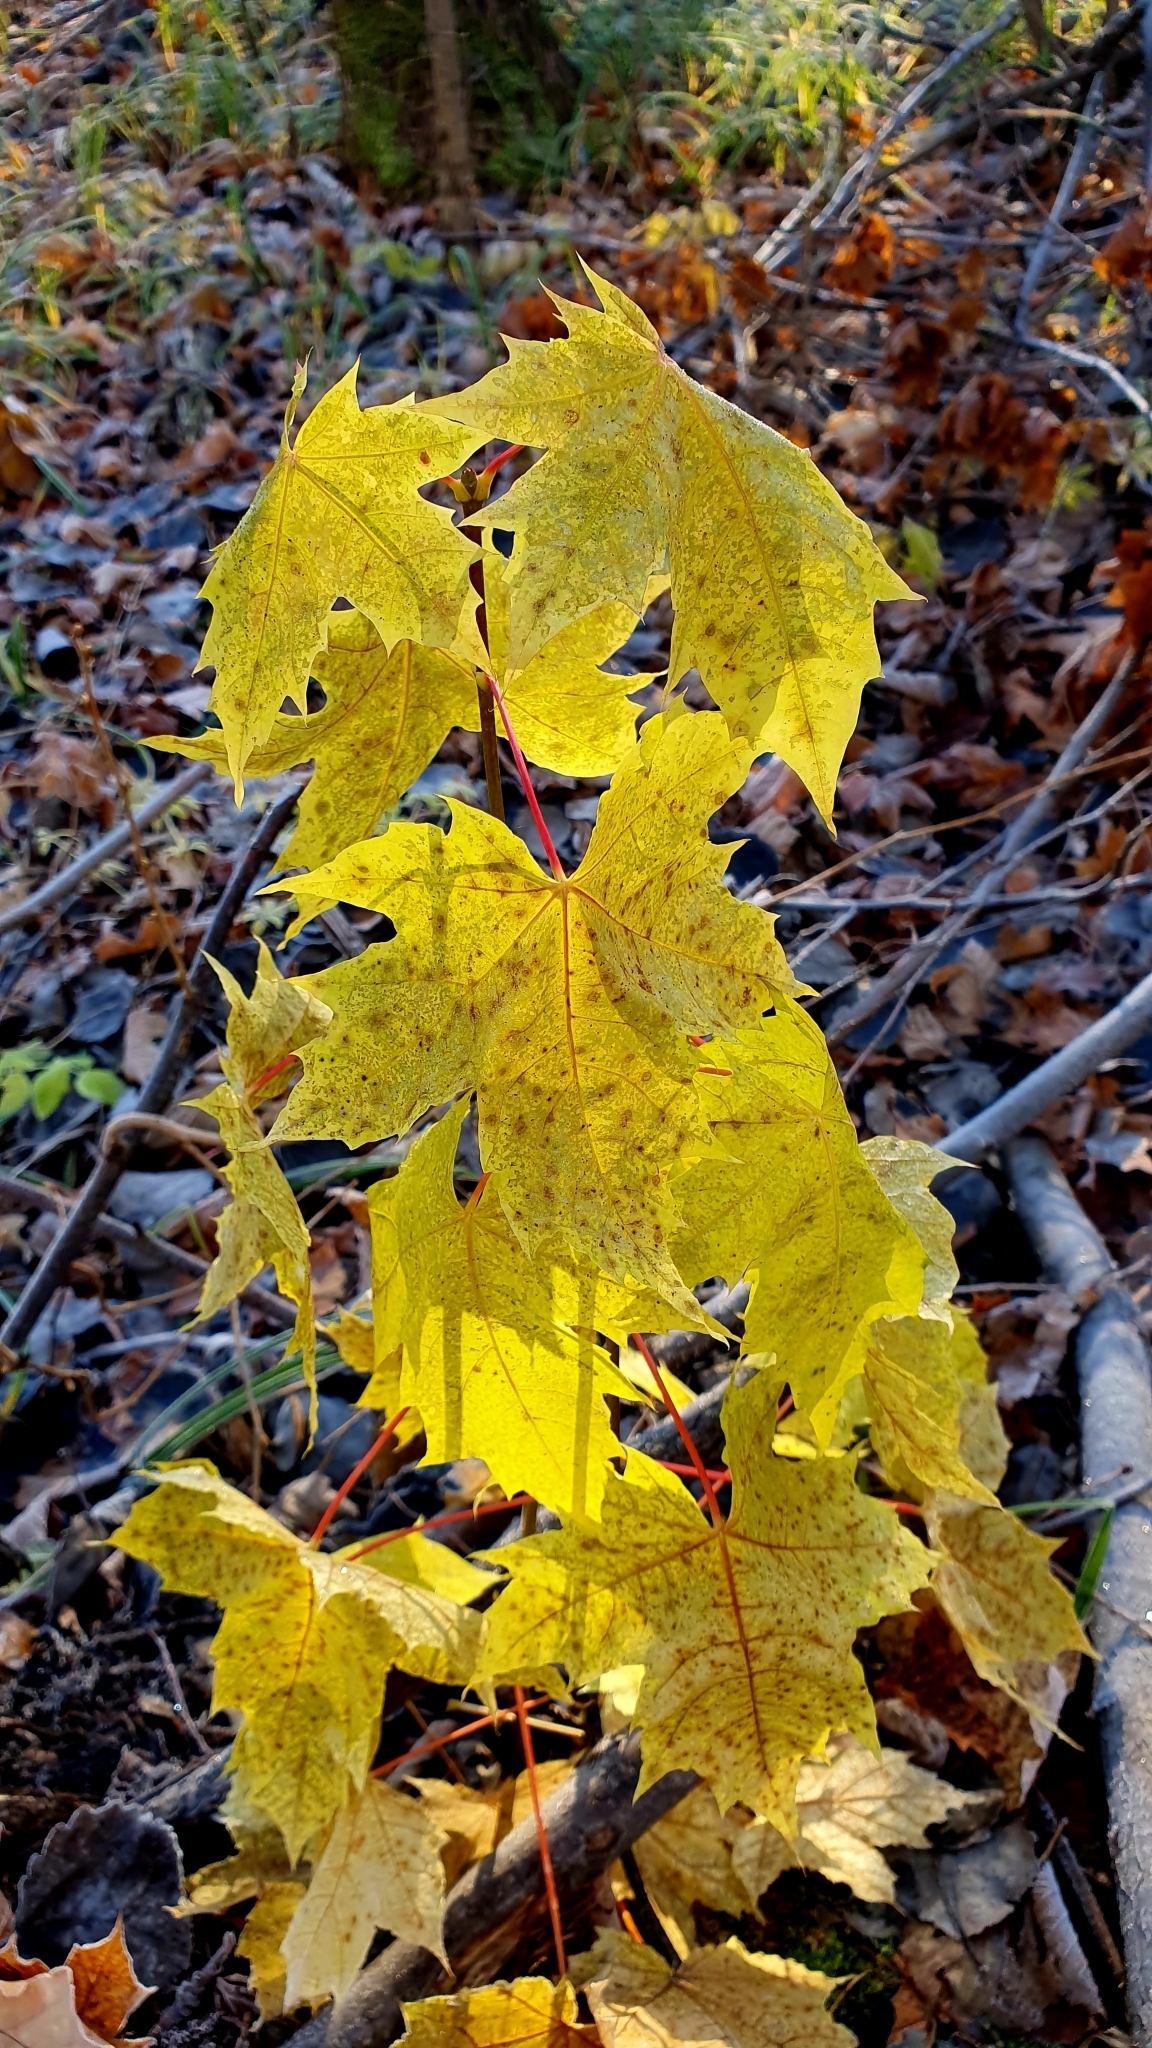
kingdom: Plantae
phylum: Tracheophyta
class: Magnoliopsida
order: Sapindales
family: Sapindaceae
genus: Acer
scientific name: Acer platanoides
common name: Norway maple
